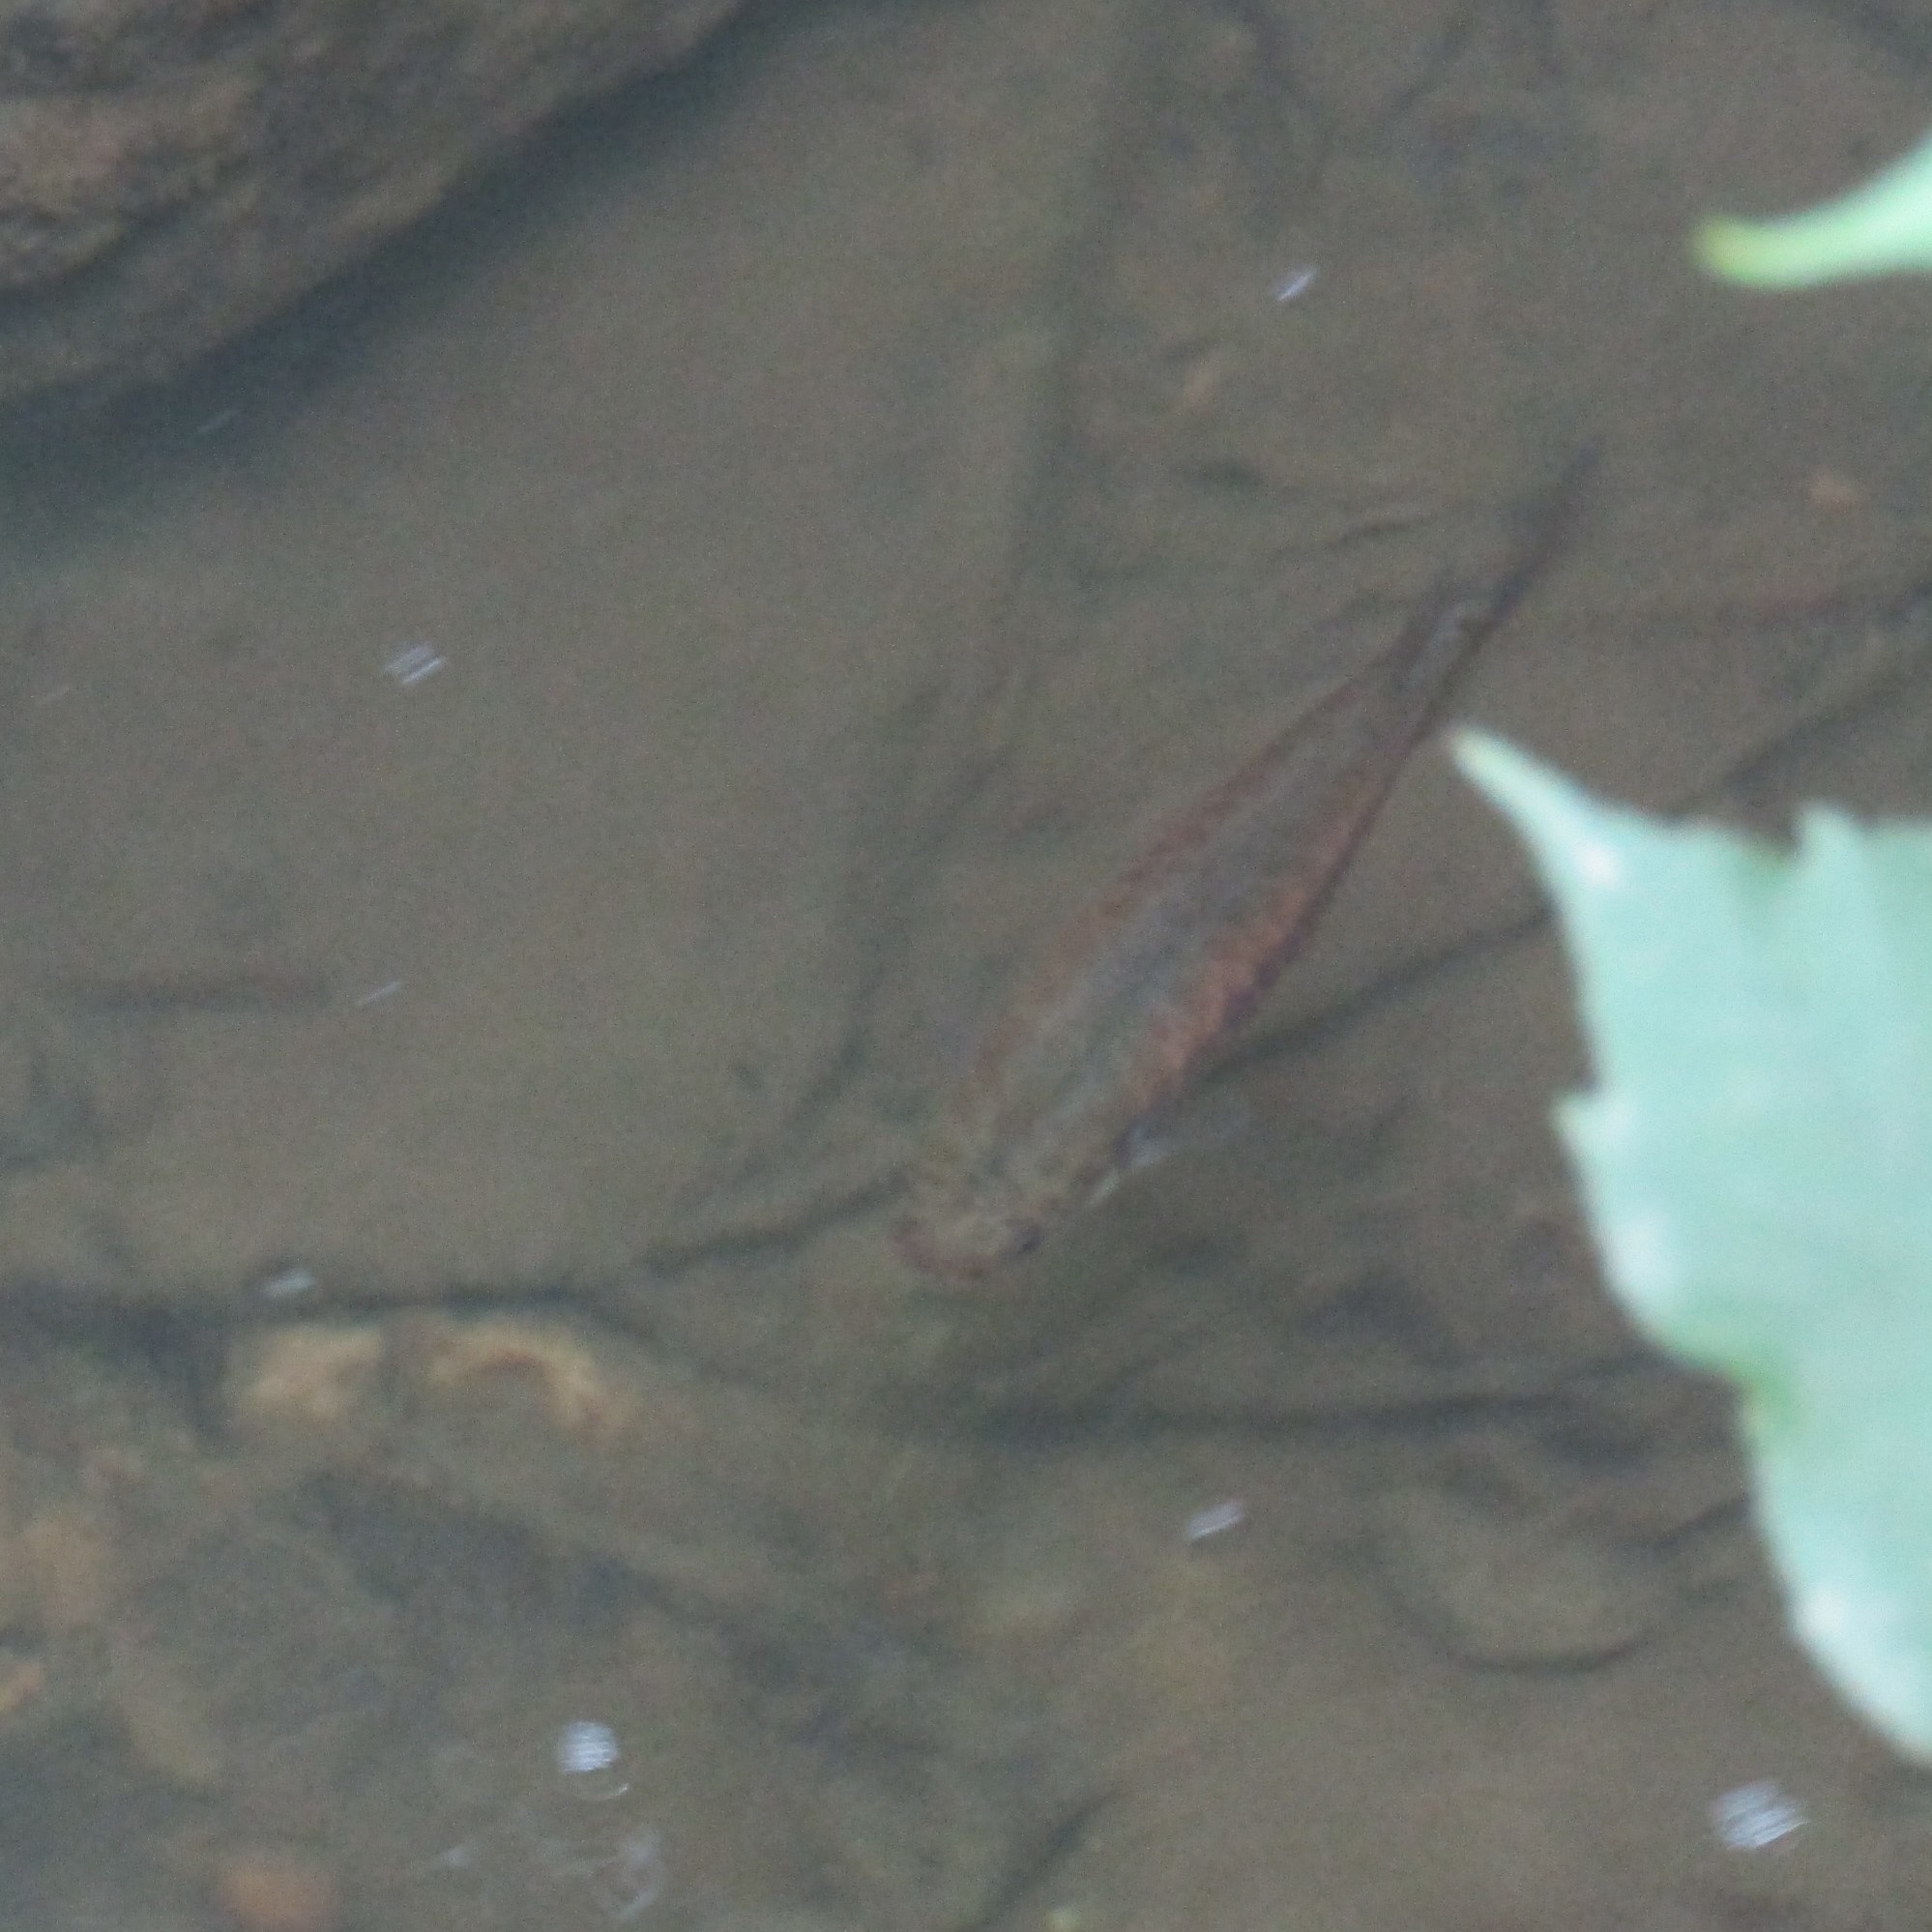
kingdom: Animalia
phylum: Chordata
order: Osmeriformes
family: Galaxiidae
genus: Galaxias
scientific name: Galaxias fasciatus
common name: Banded kokopu
